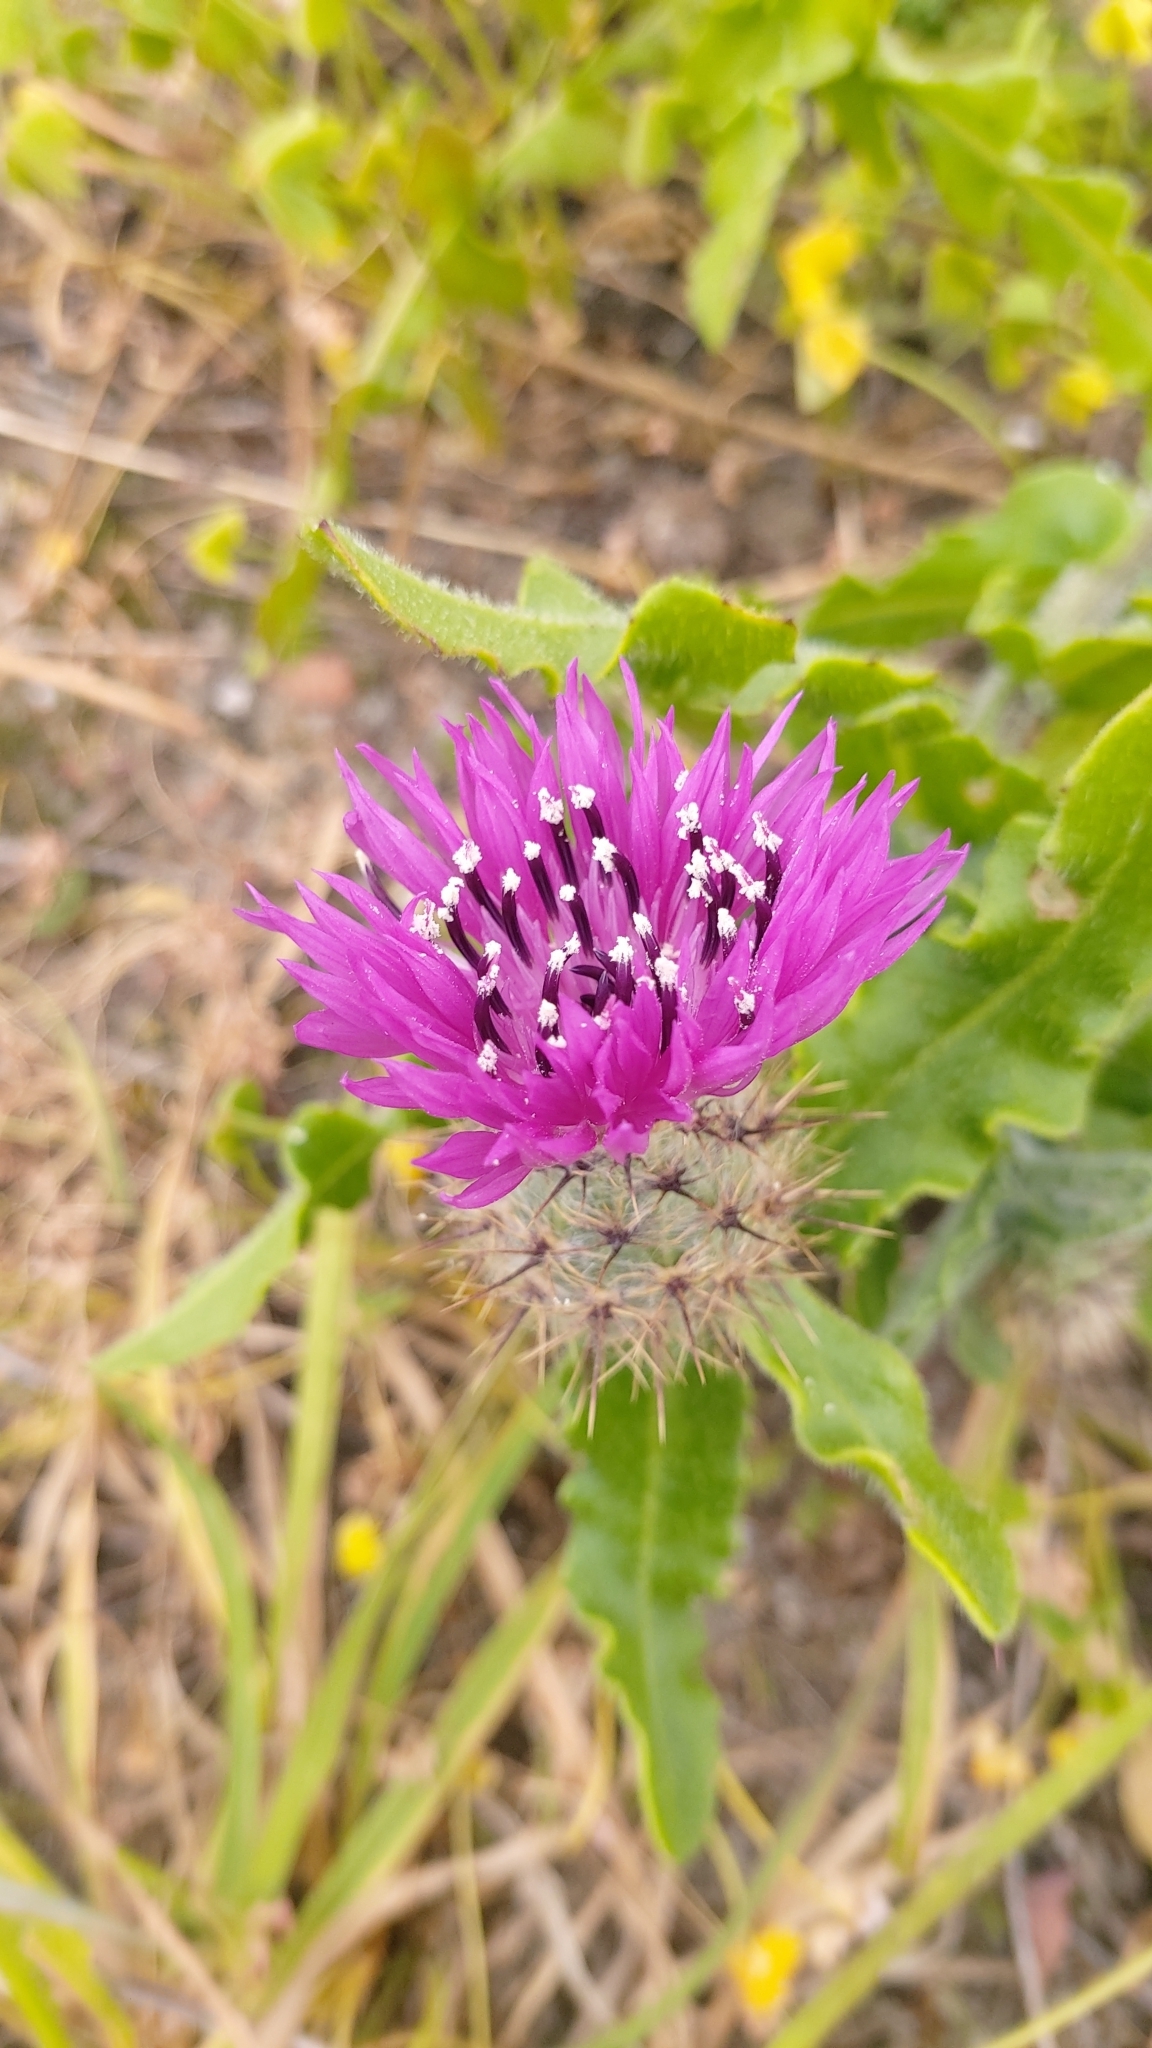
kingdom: Plantae
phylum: Tracheophyta
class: Magnoliopsida
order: Asterales
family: Asteraceae
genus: Centaurea
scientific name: Centaurea polyacantha
